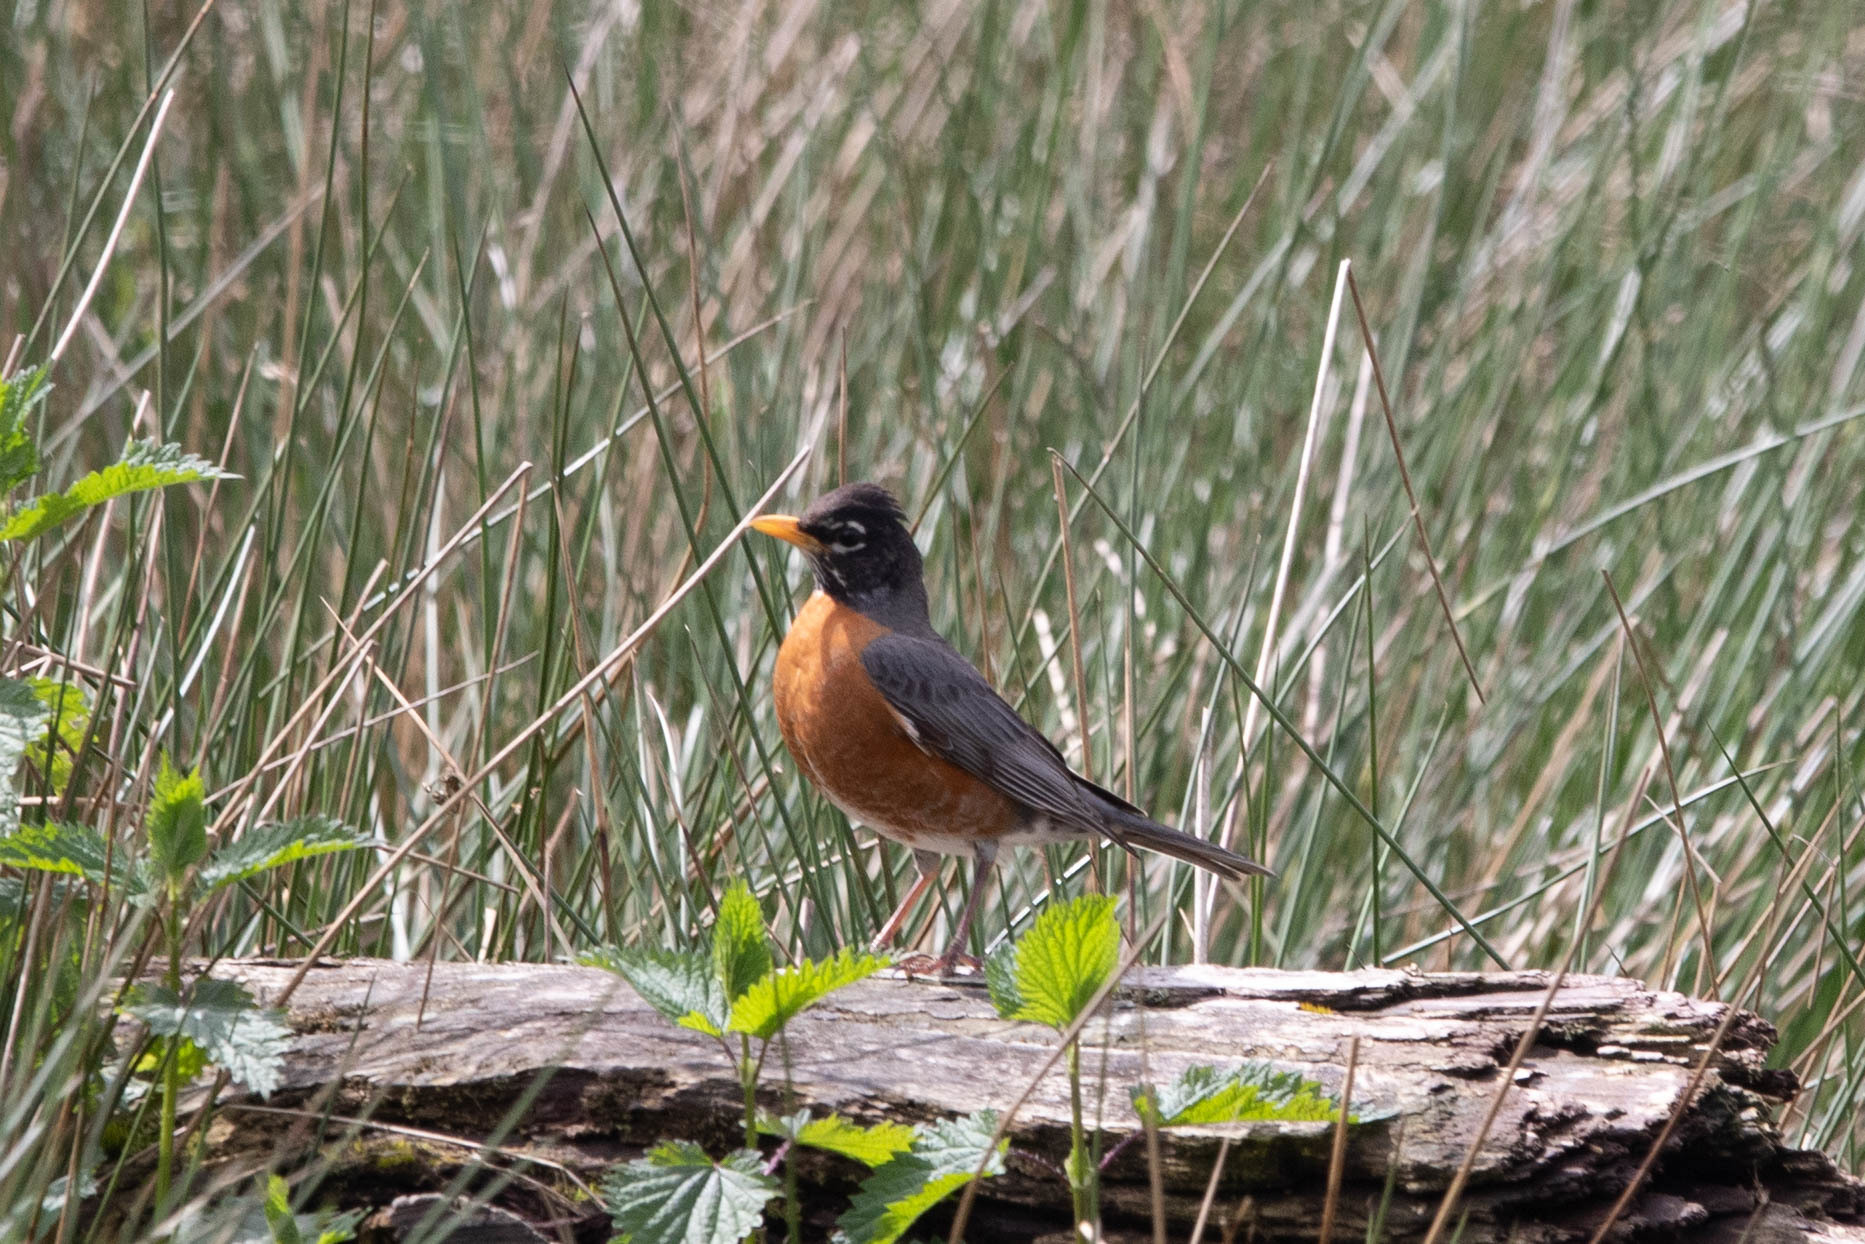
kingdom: Animalia
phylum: Chordata
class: Aves
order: Passeriformes
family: Turdidae
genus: Turdus
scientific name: Turdus migratorius
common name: American robin
